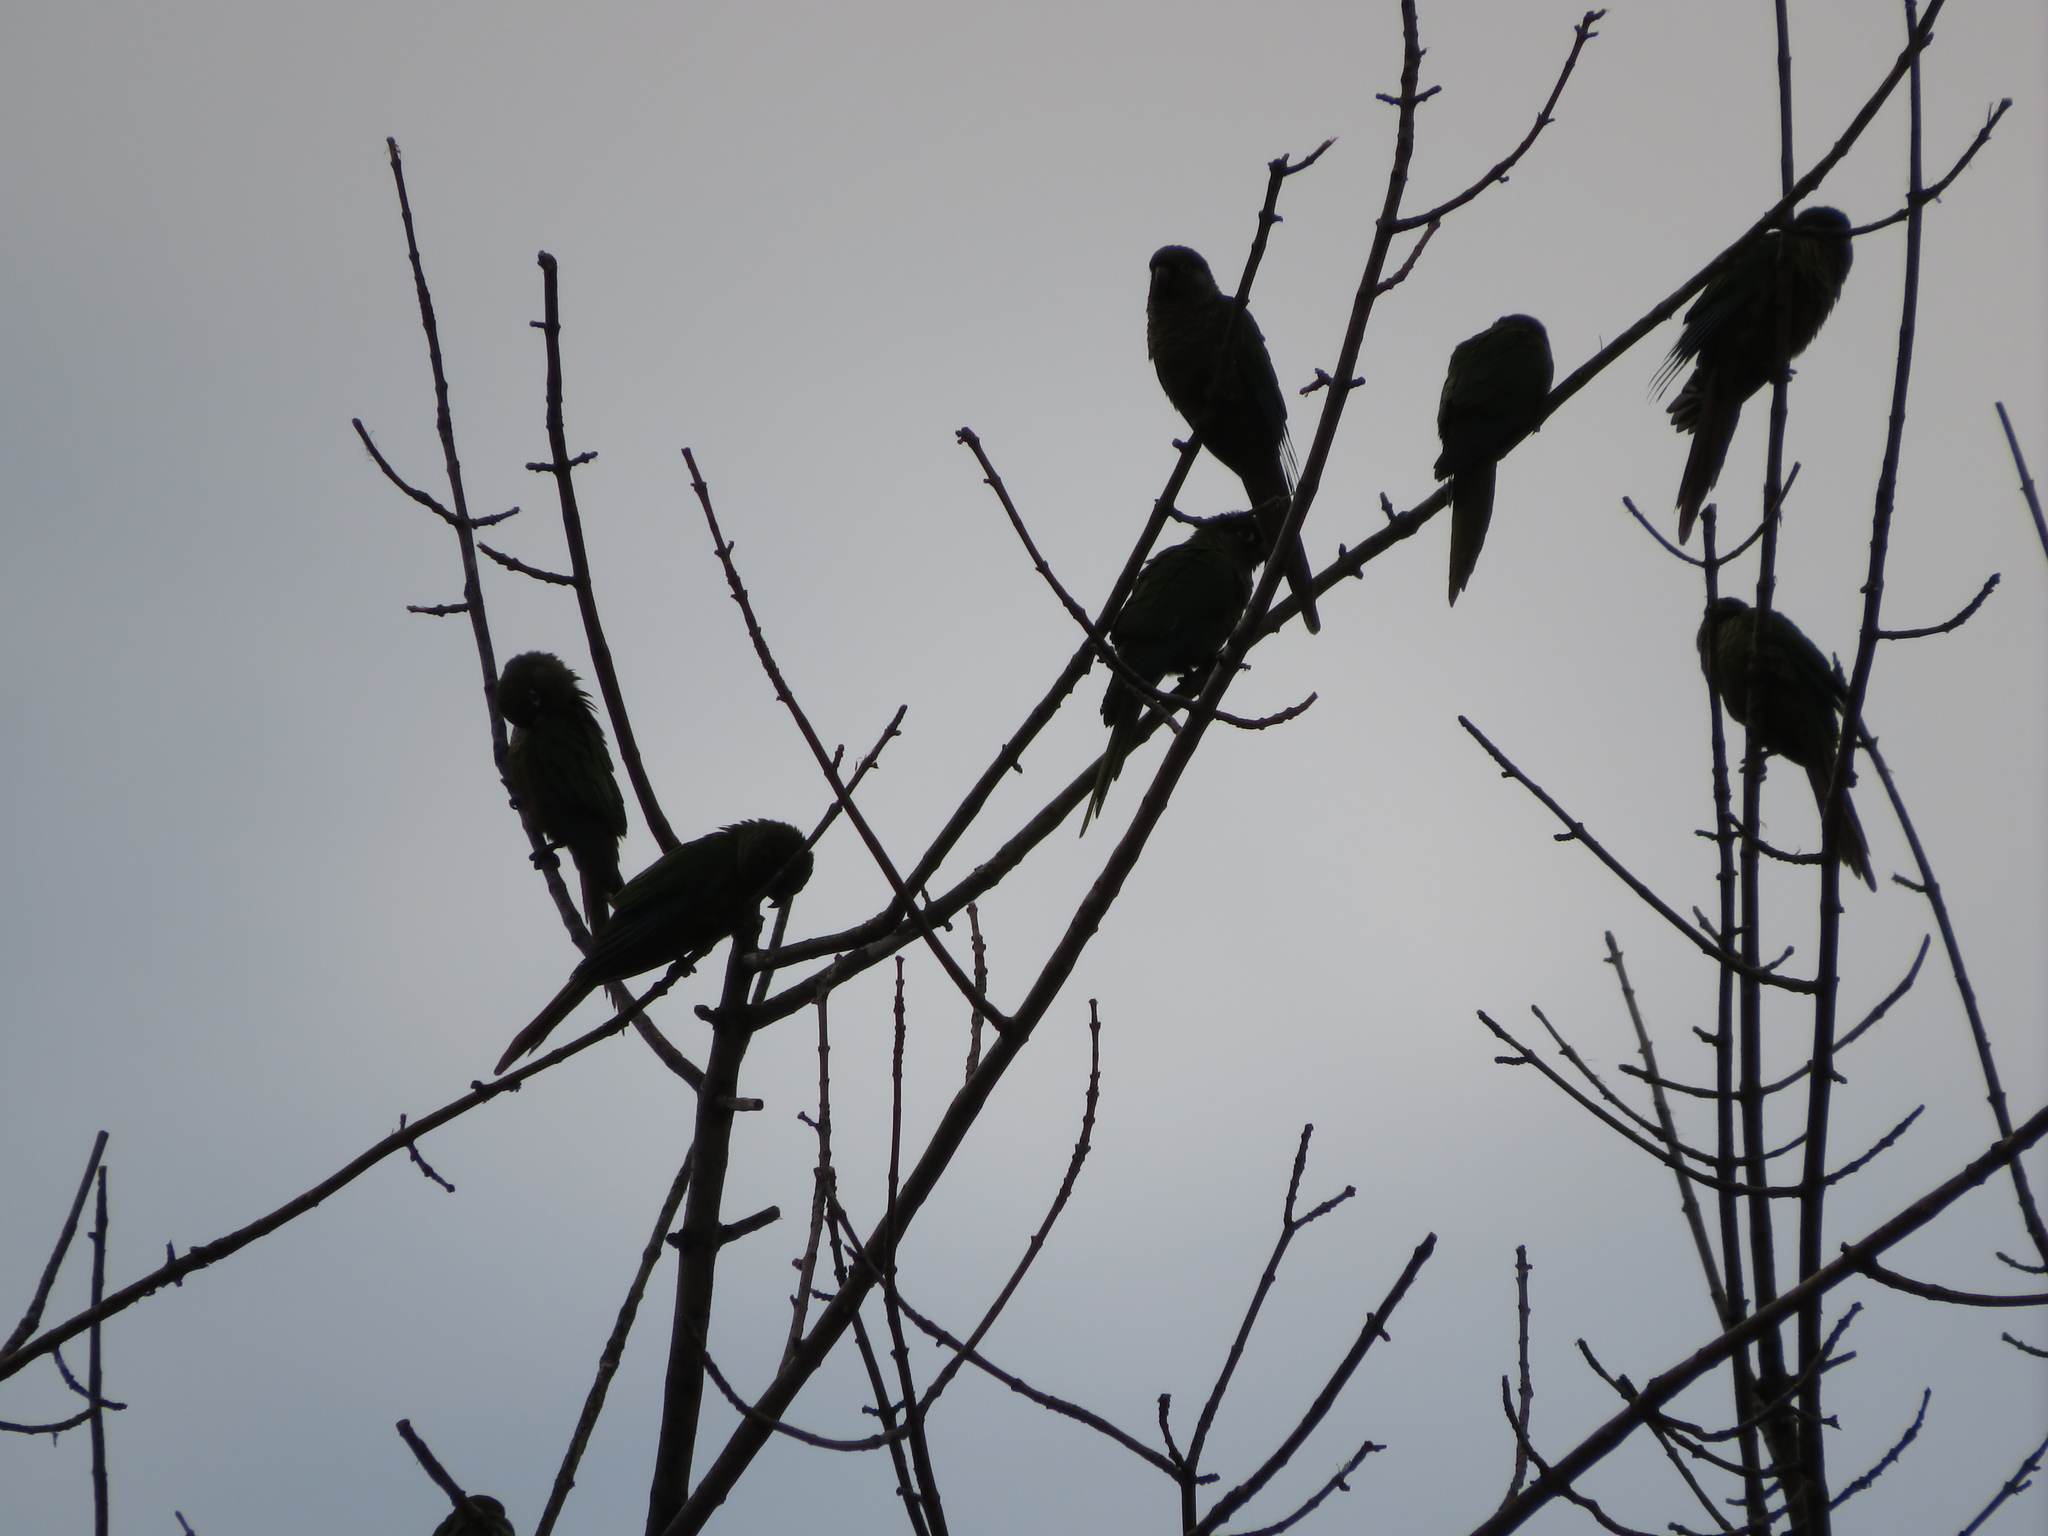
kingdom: Animalia
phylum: Chordata
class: Aves
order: Psittaciformes
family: Psittacidae
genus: Pyrrhura
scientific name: Pyrrhura frontalis
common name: Maroon-bellied parakeet
